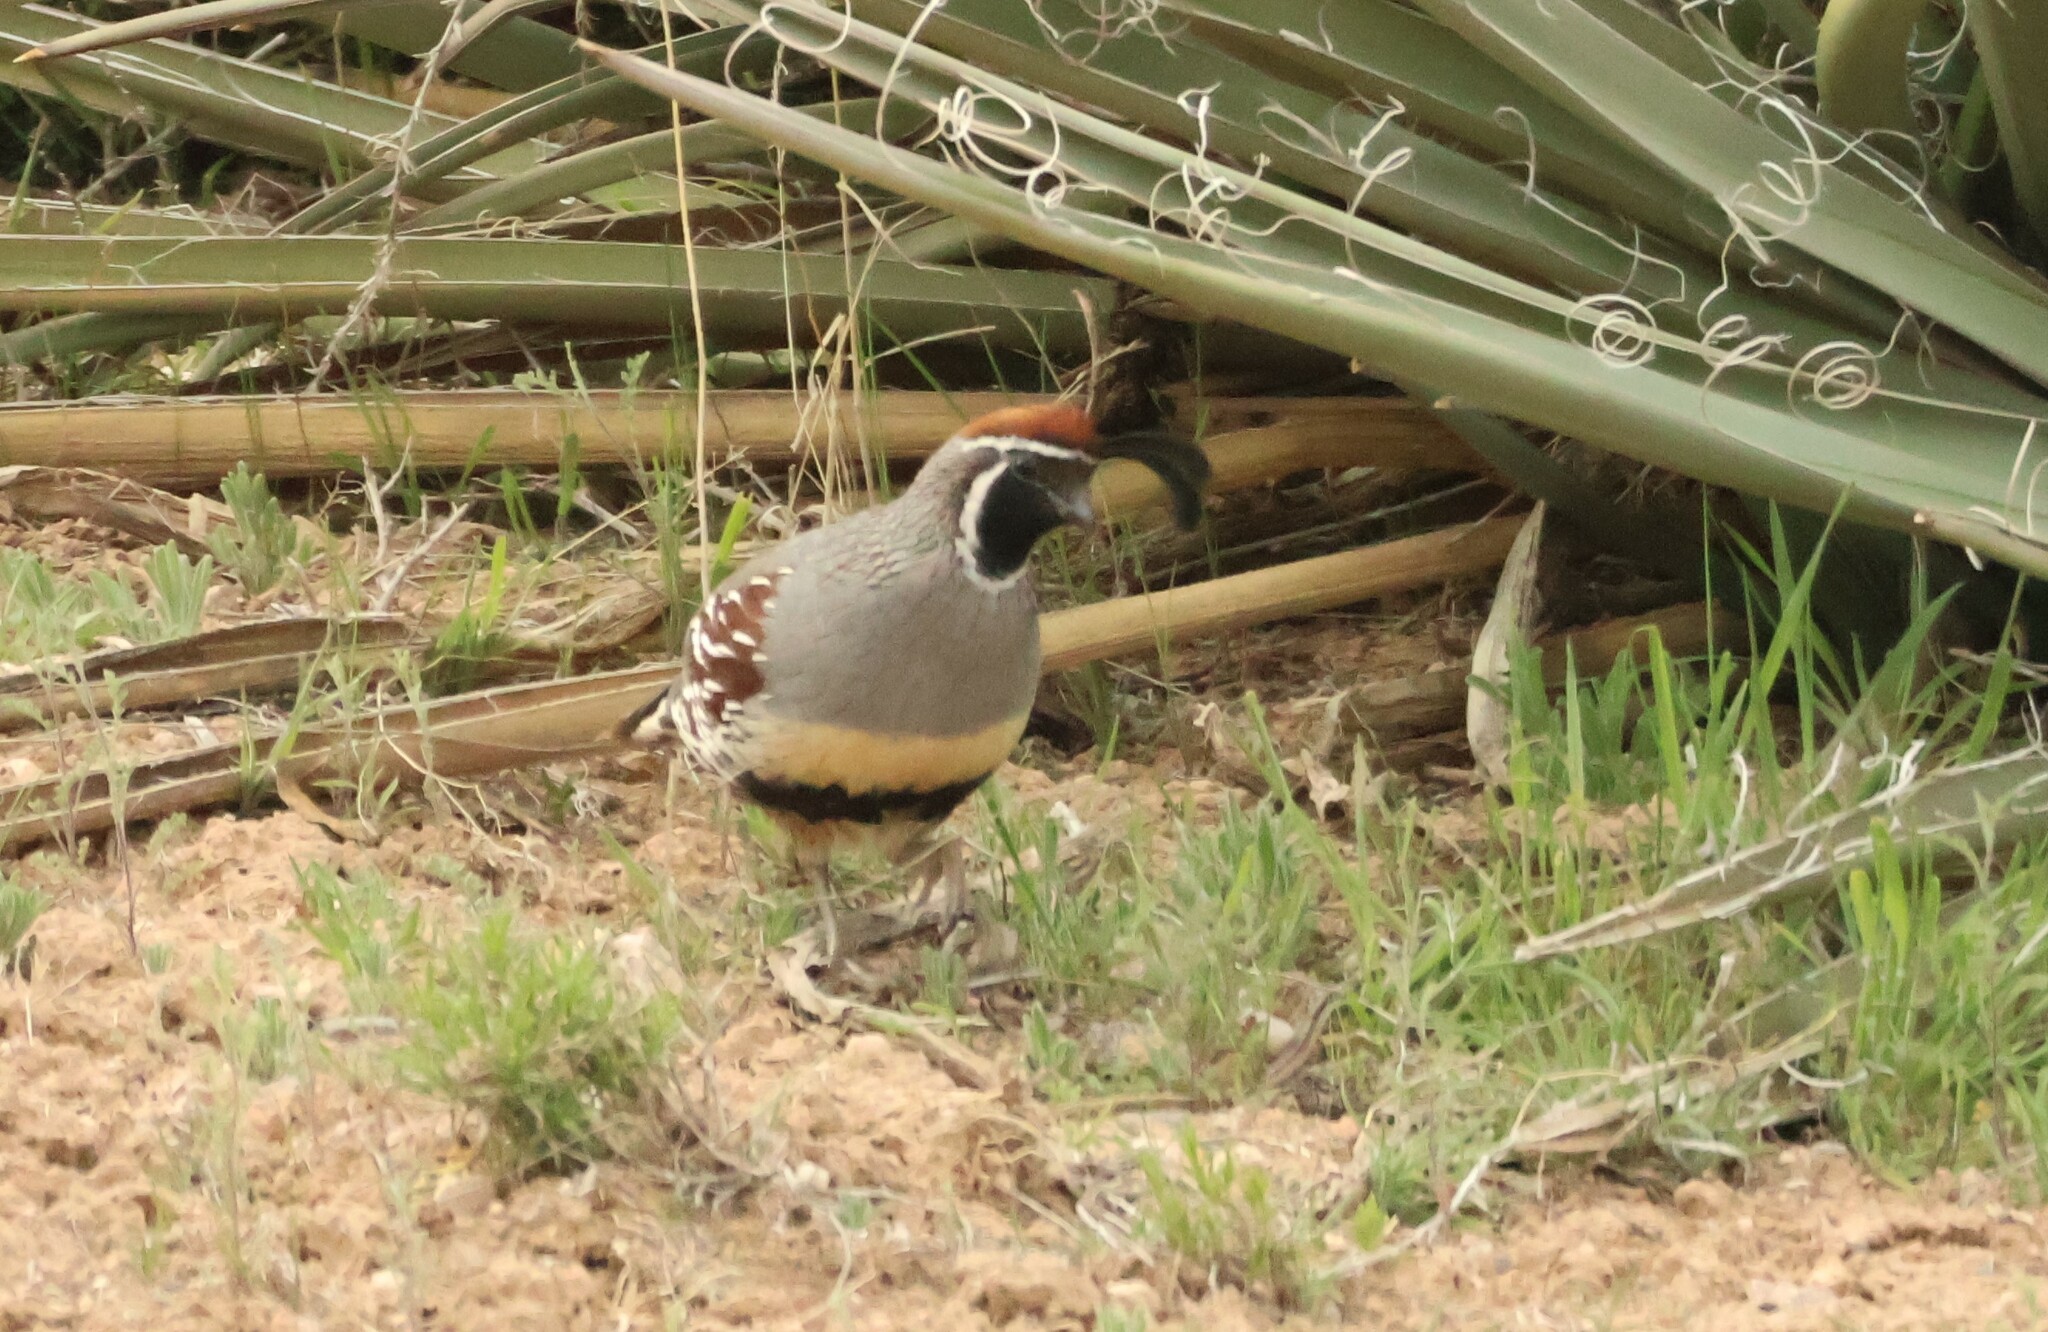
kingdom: Animalia
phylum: Chordata
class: Aves
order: Galliformes
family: Odontophoridae
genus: Callipepla
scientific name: Callipepla gambelii
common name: Gambel's quail
